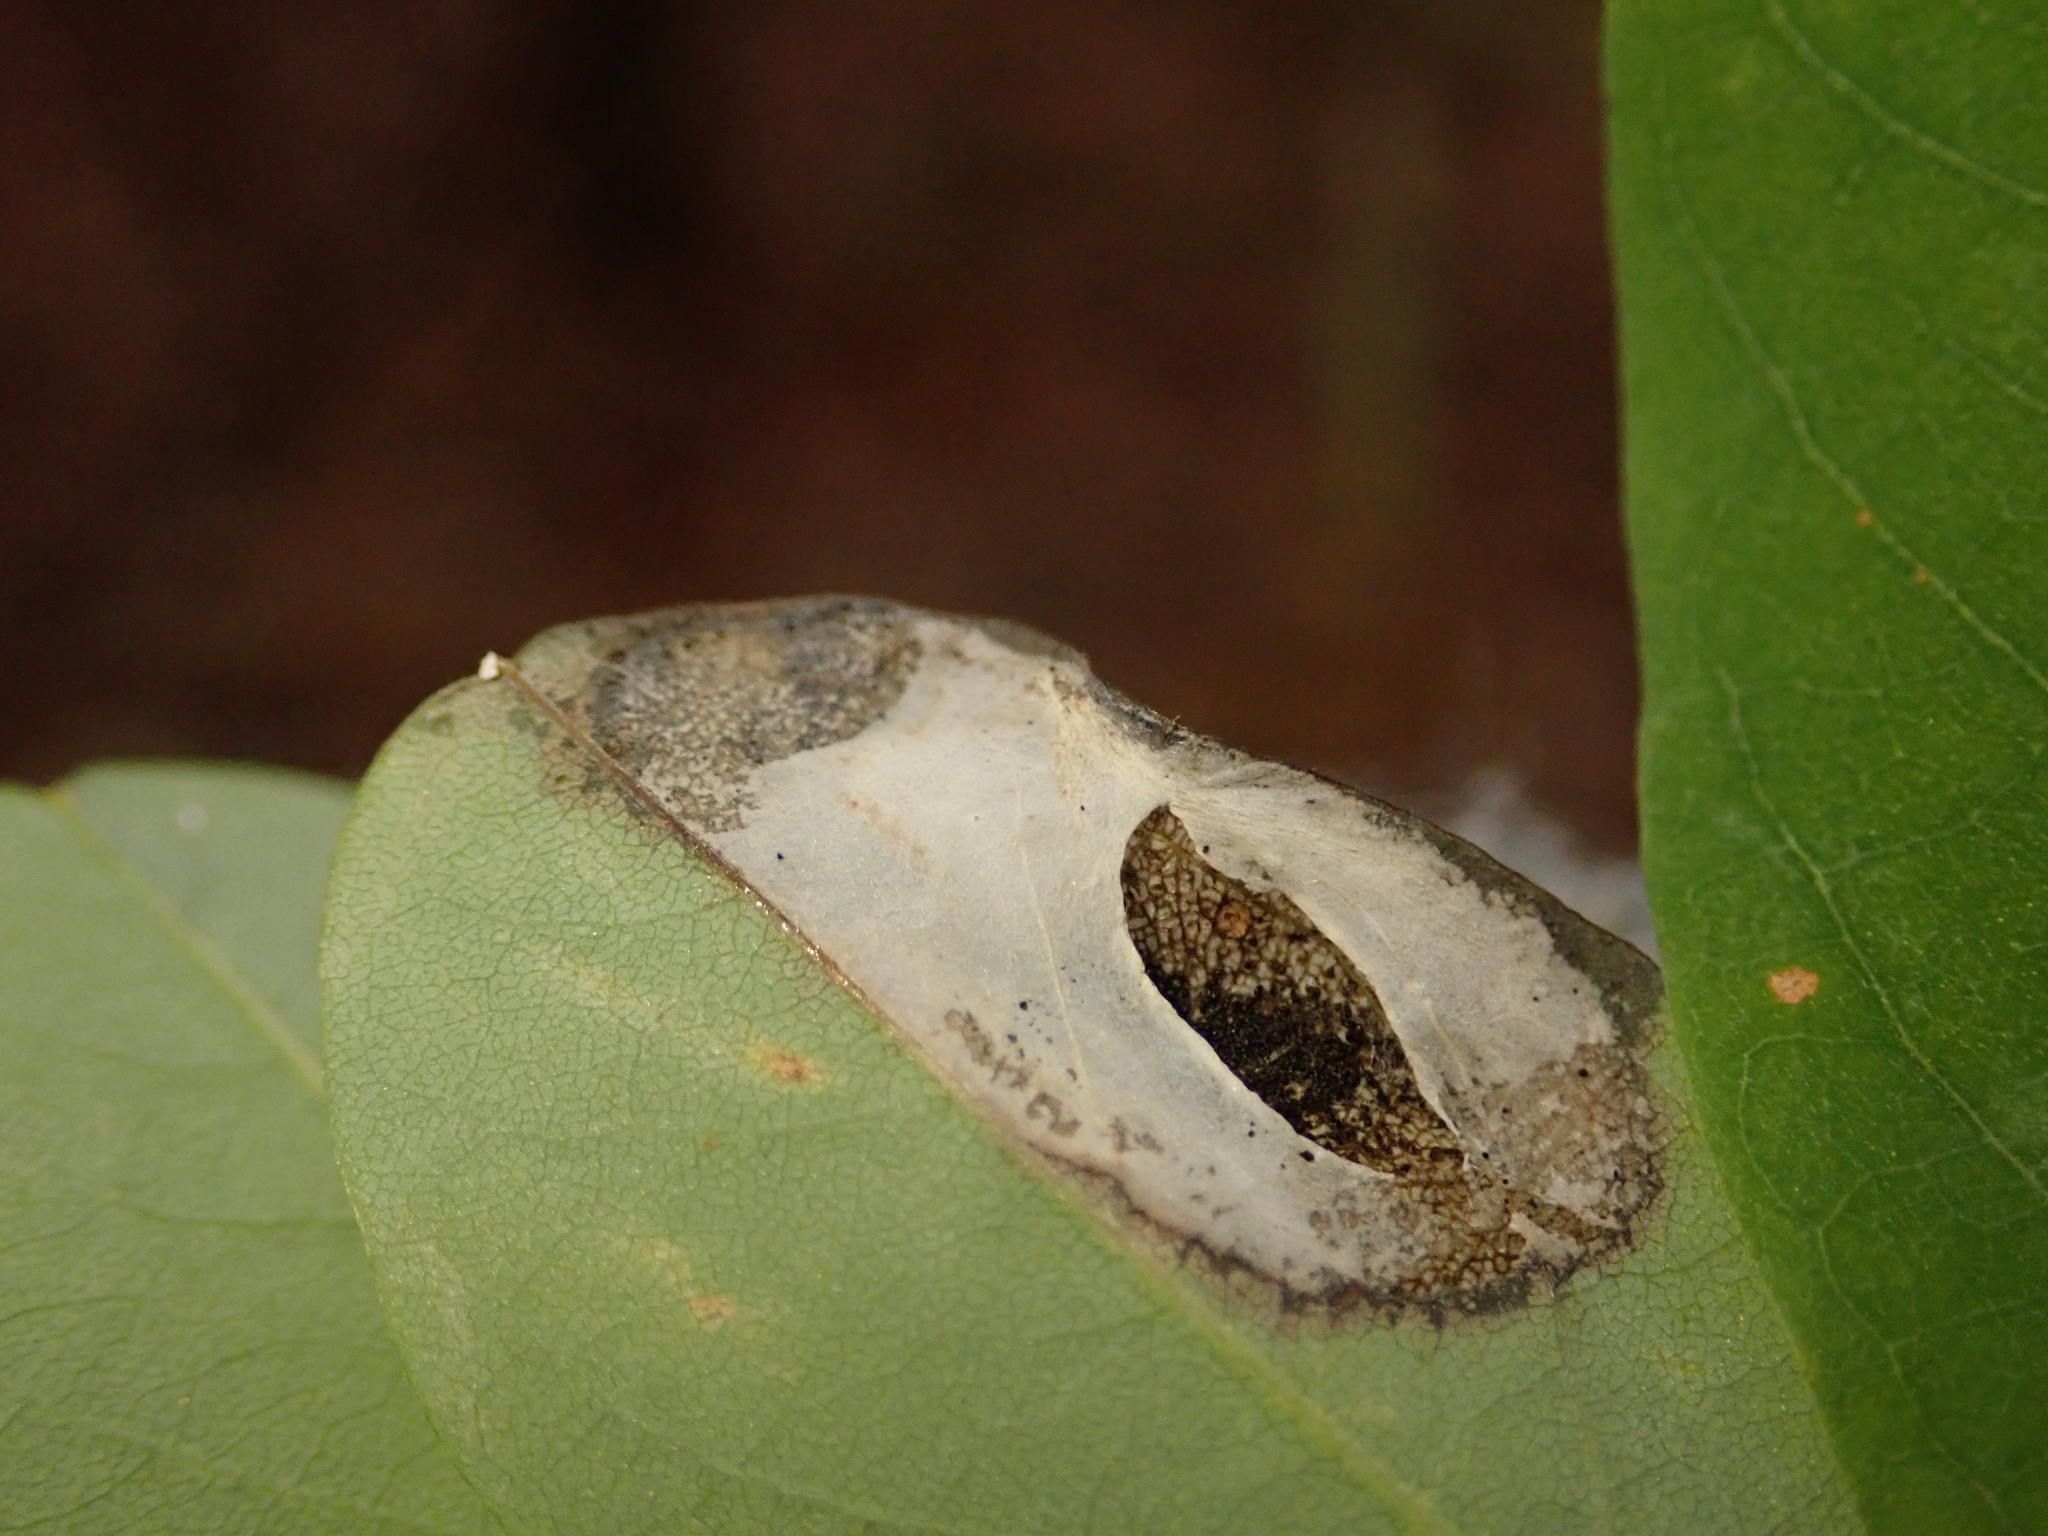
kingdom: Animalia
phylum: Arthropoda
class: Insecta
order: Lepidoptera
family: Gracillariidae
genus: Macrosaccus
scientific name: Macrosaccus robiniella
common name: Leaf blotch miner moth
